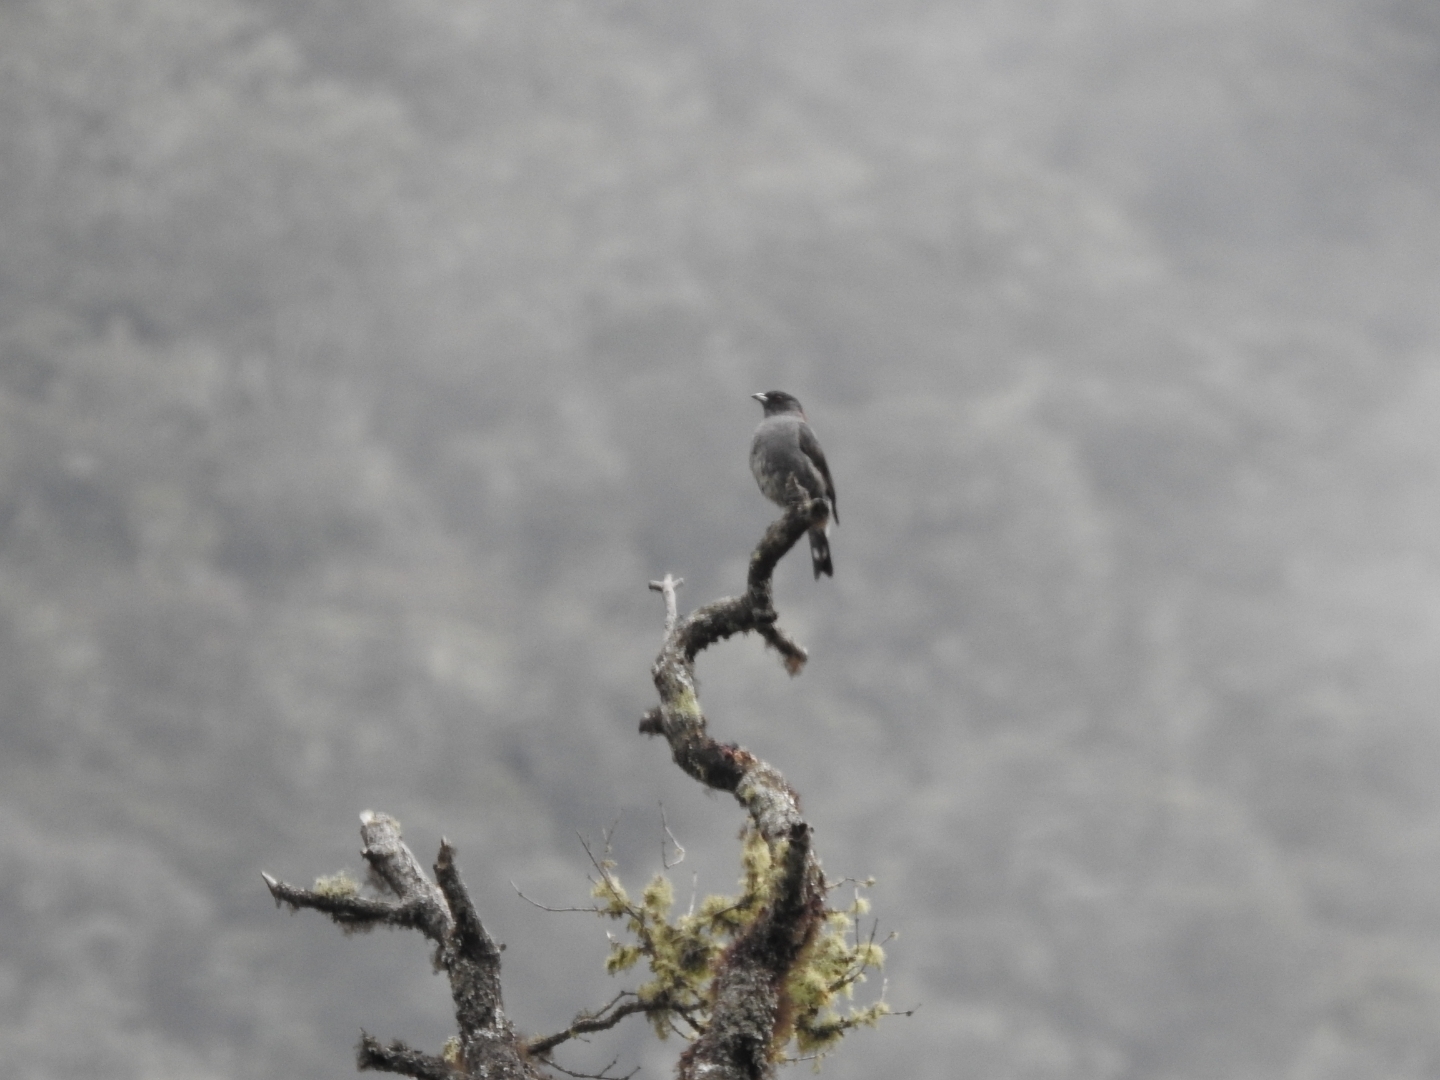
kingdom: Animalia
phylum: Chordata
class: Aves
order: Passeriformes
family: Cotingidae
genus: Ampelion
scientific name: Ampelion rubrocristatus
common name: Red-crested cotinga
